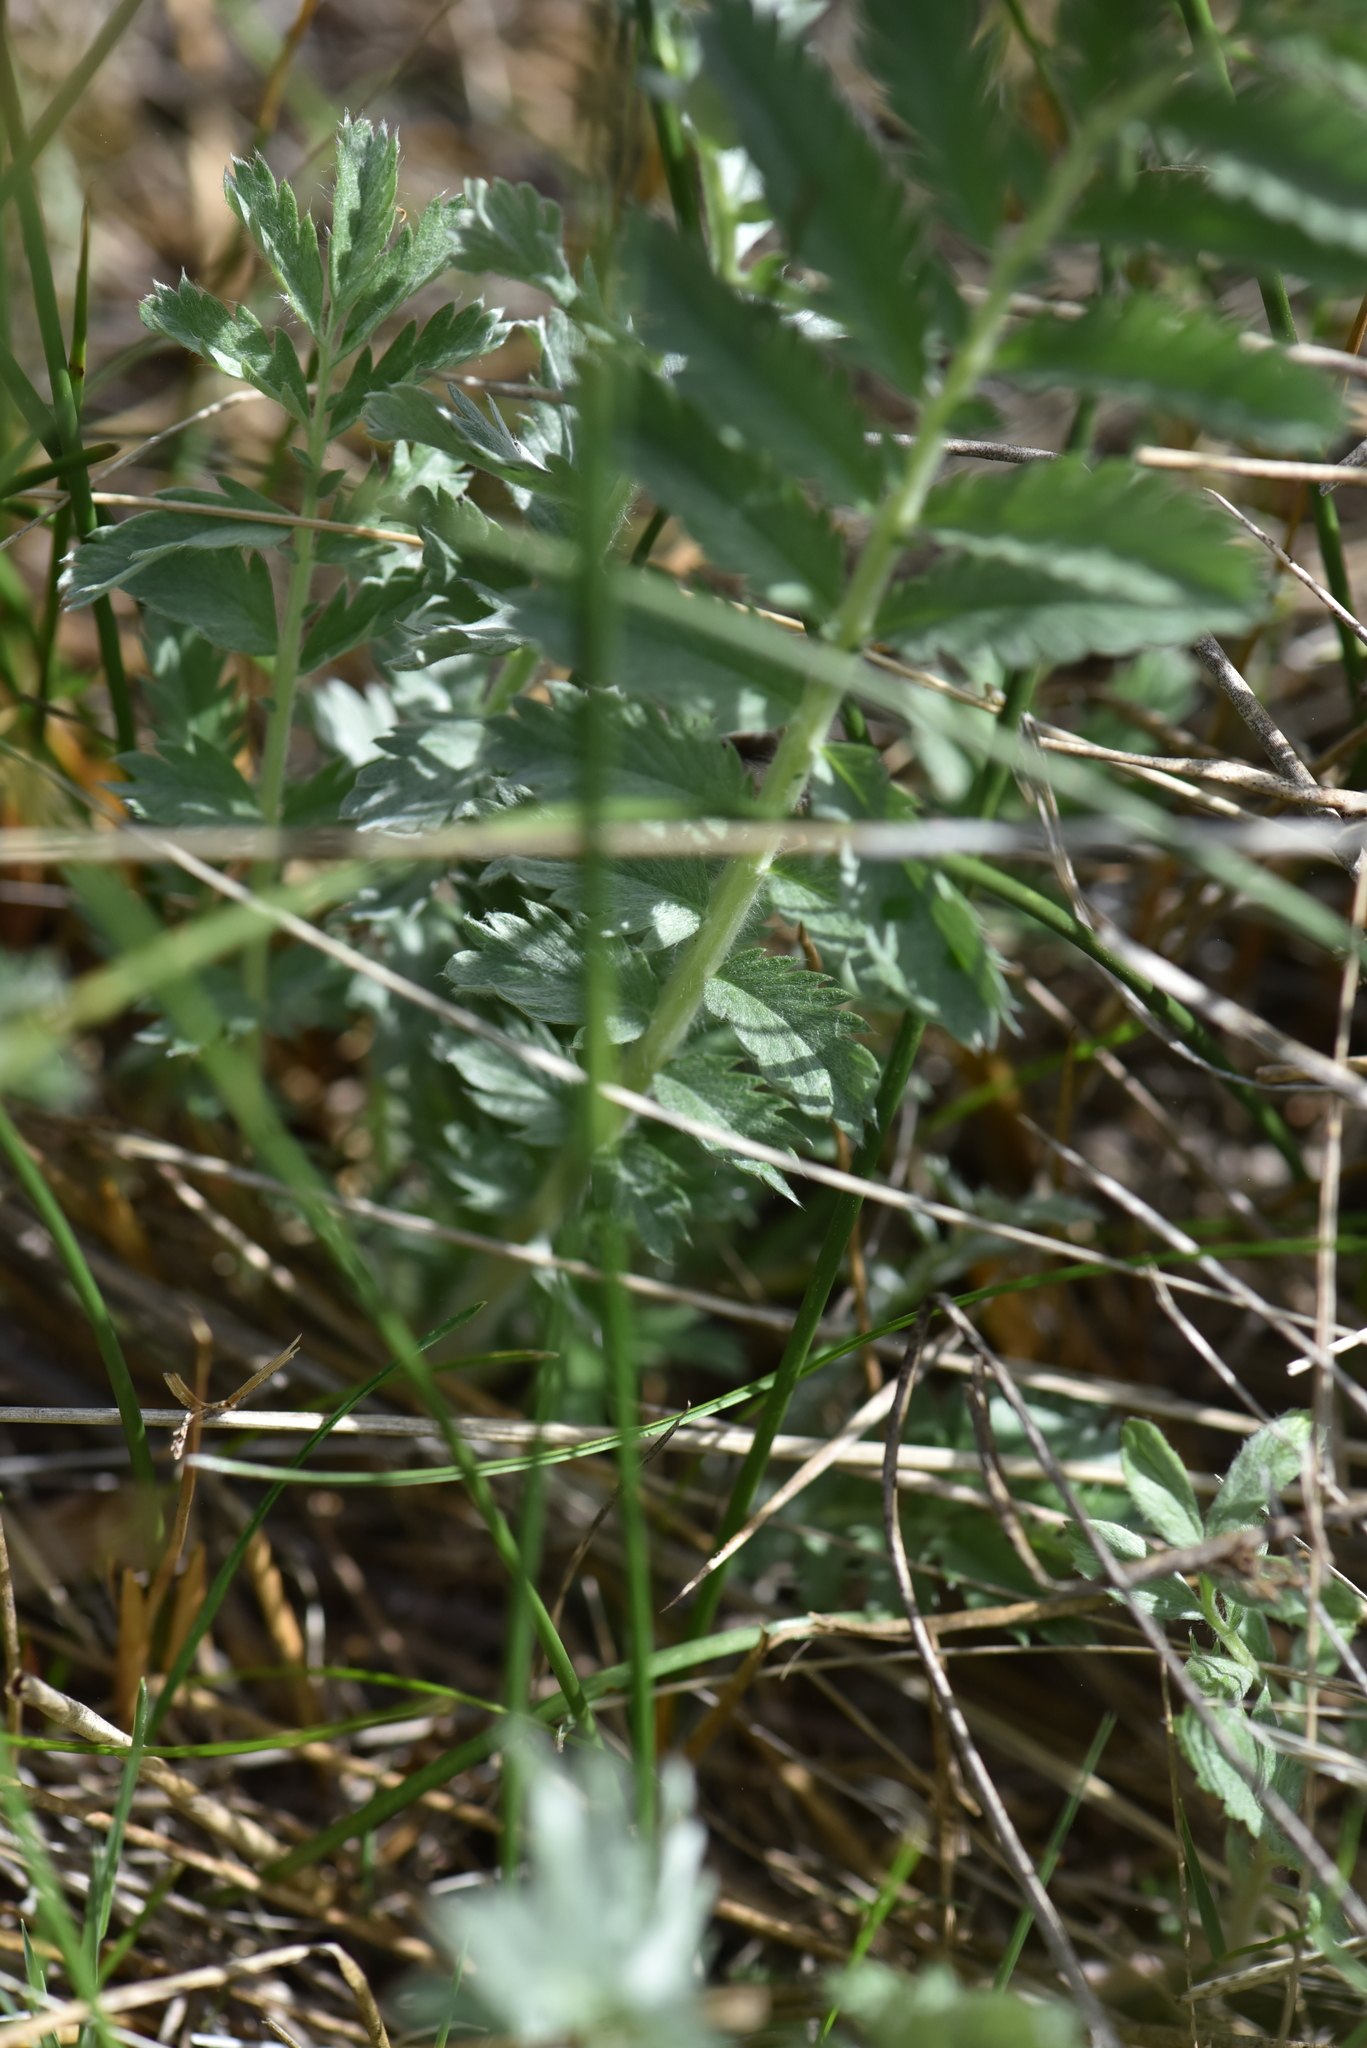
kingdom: Plantae
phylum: Tracheophyta
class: Magnoliopsida
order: Rosales
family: Rosaceae
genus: Argentina
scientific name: Argentina anserina
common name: Common silverweed
